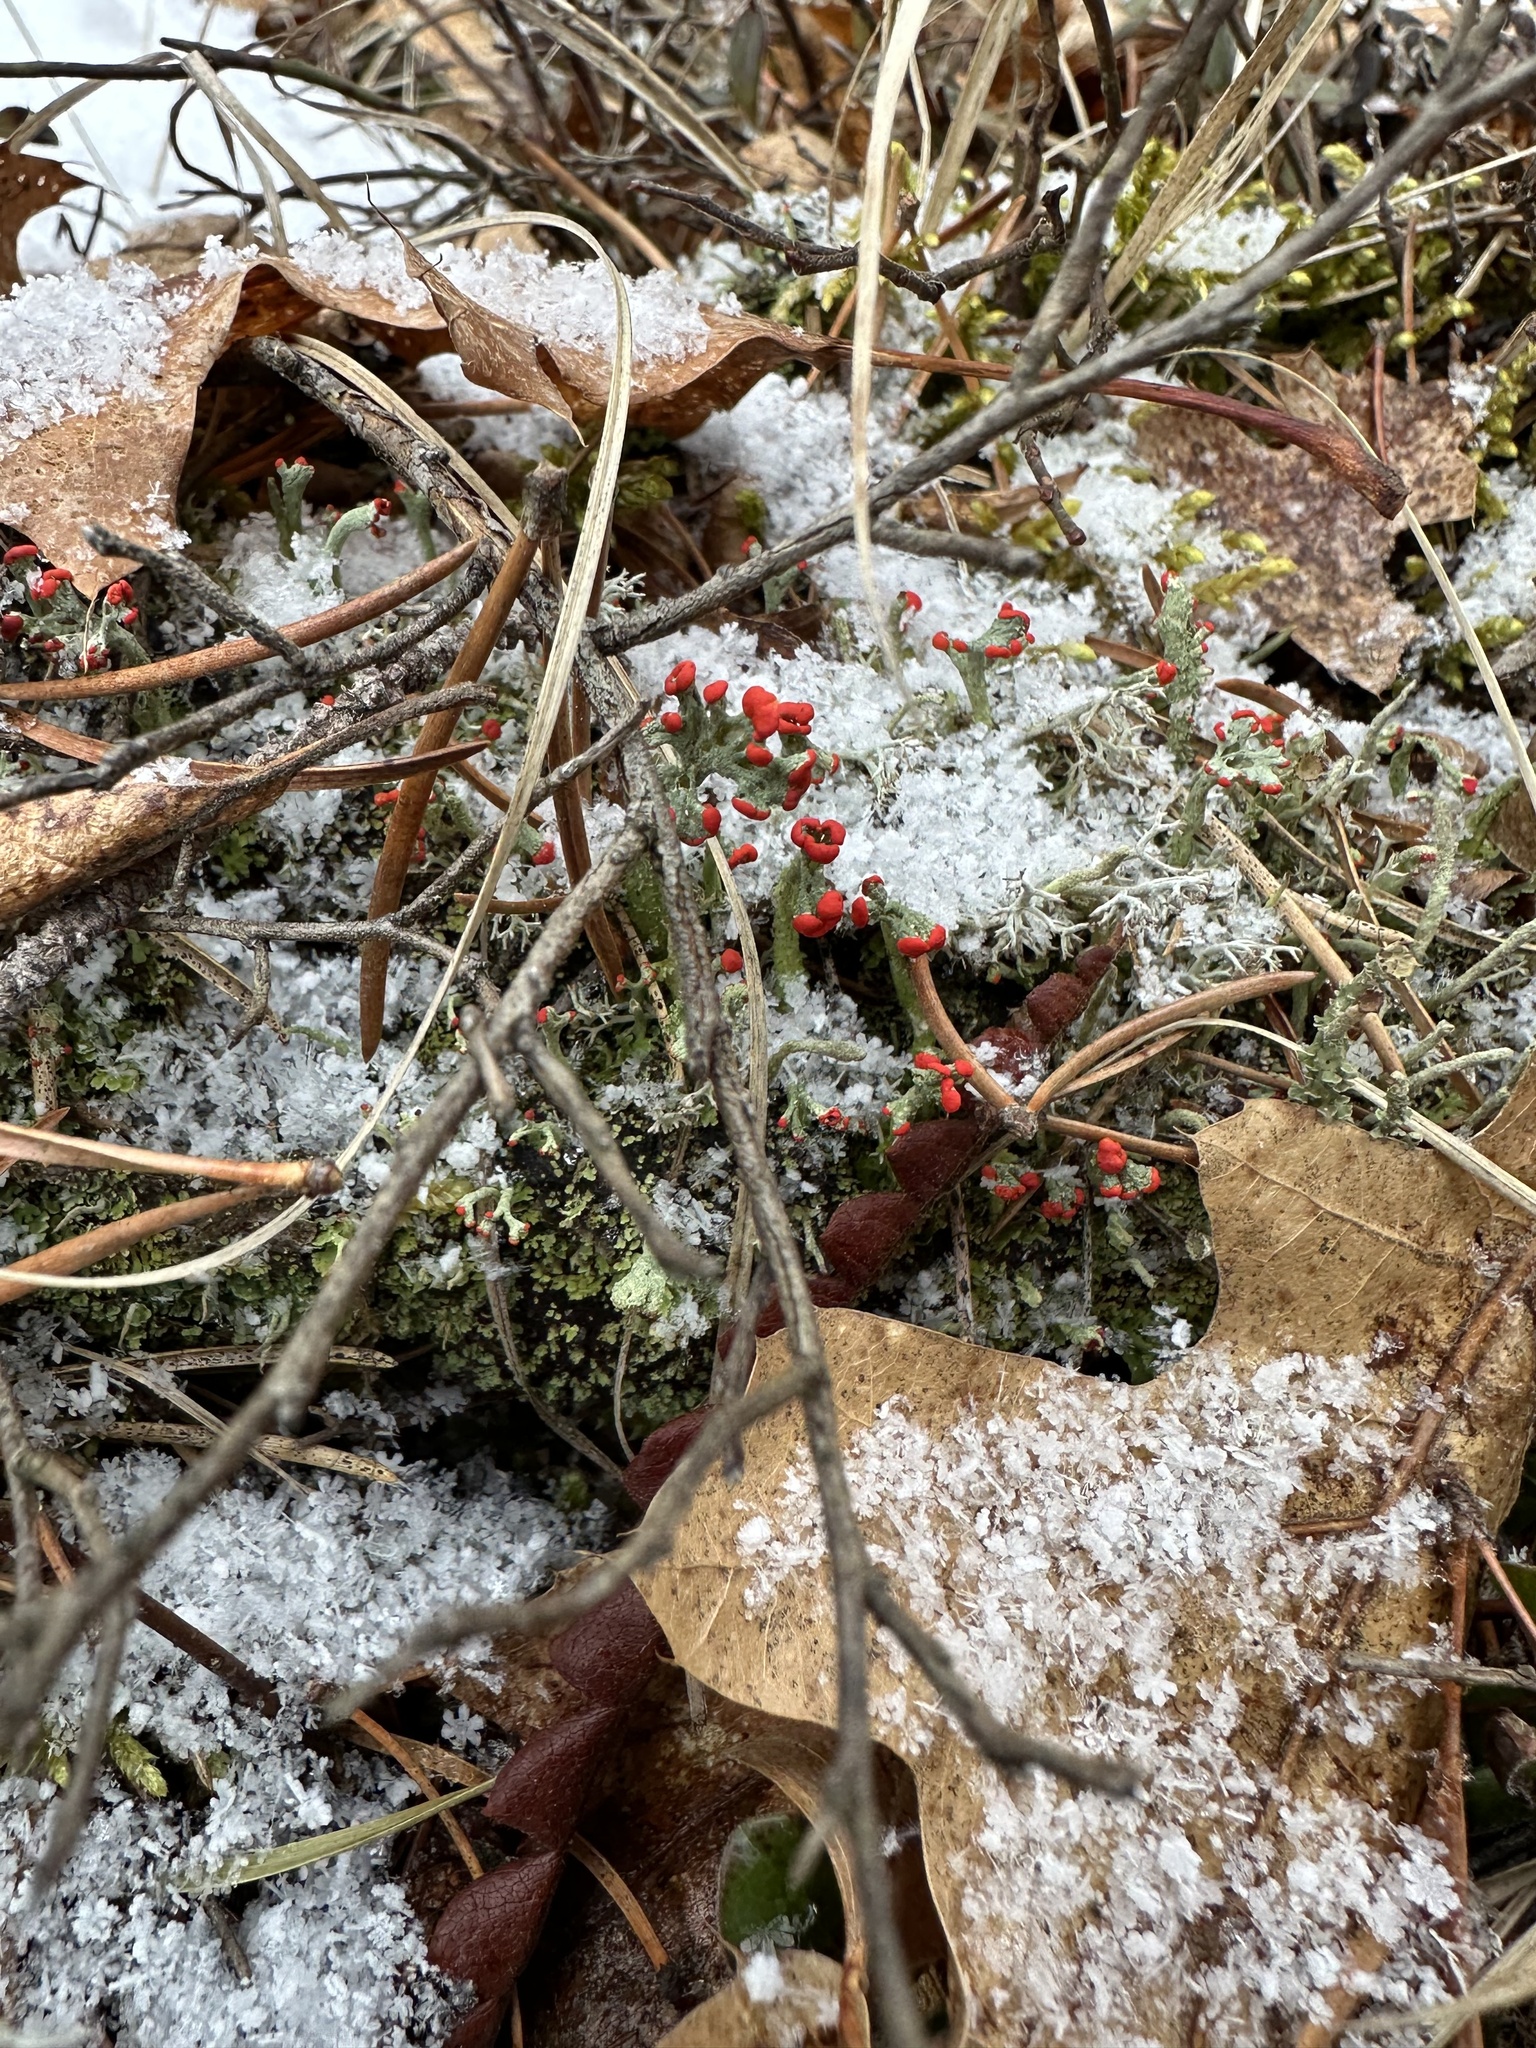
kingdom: Fungi
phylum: Ascomycota
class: Lecanoromycetes
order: Lecanorales
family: Cladoniaceae
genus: Cladonia
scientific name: Cladonia cristatella
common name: British soldier lichen
